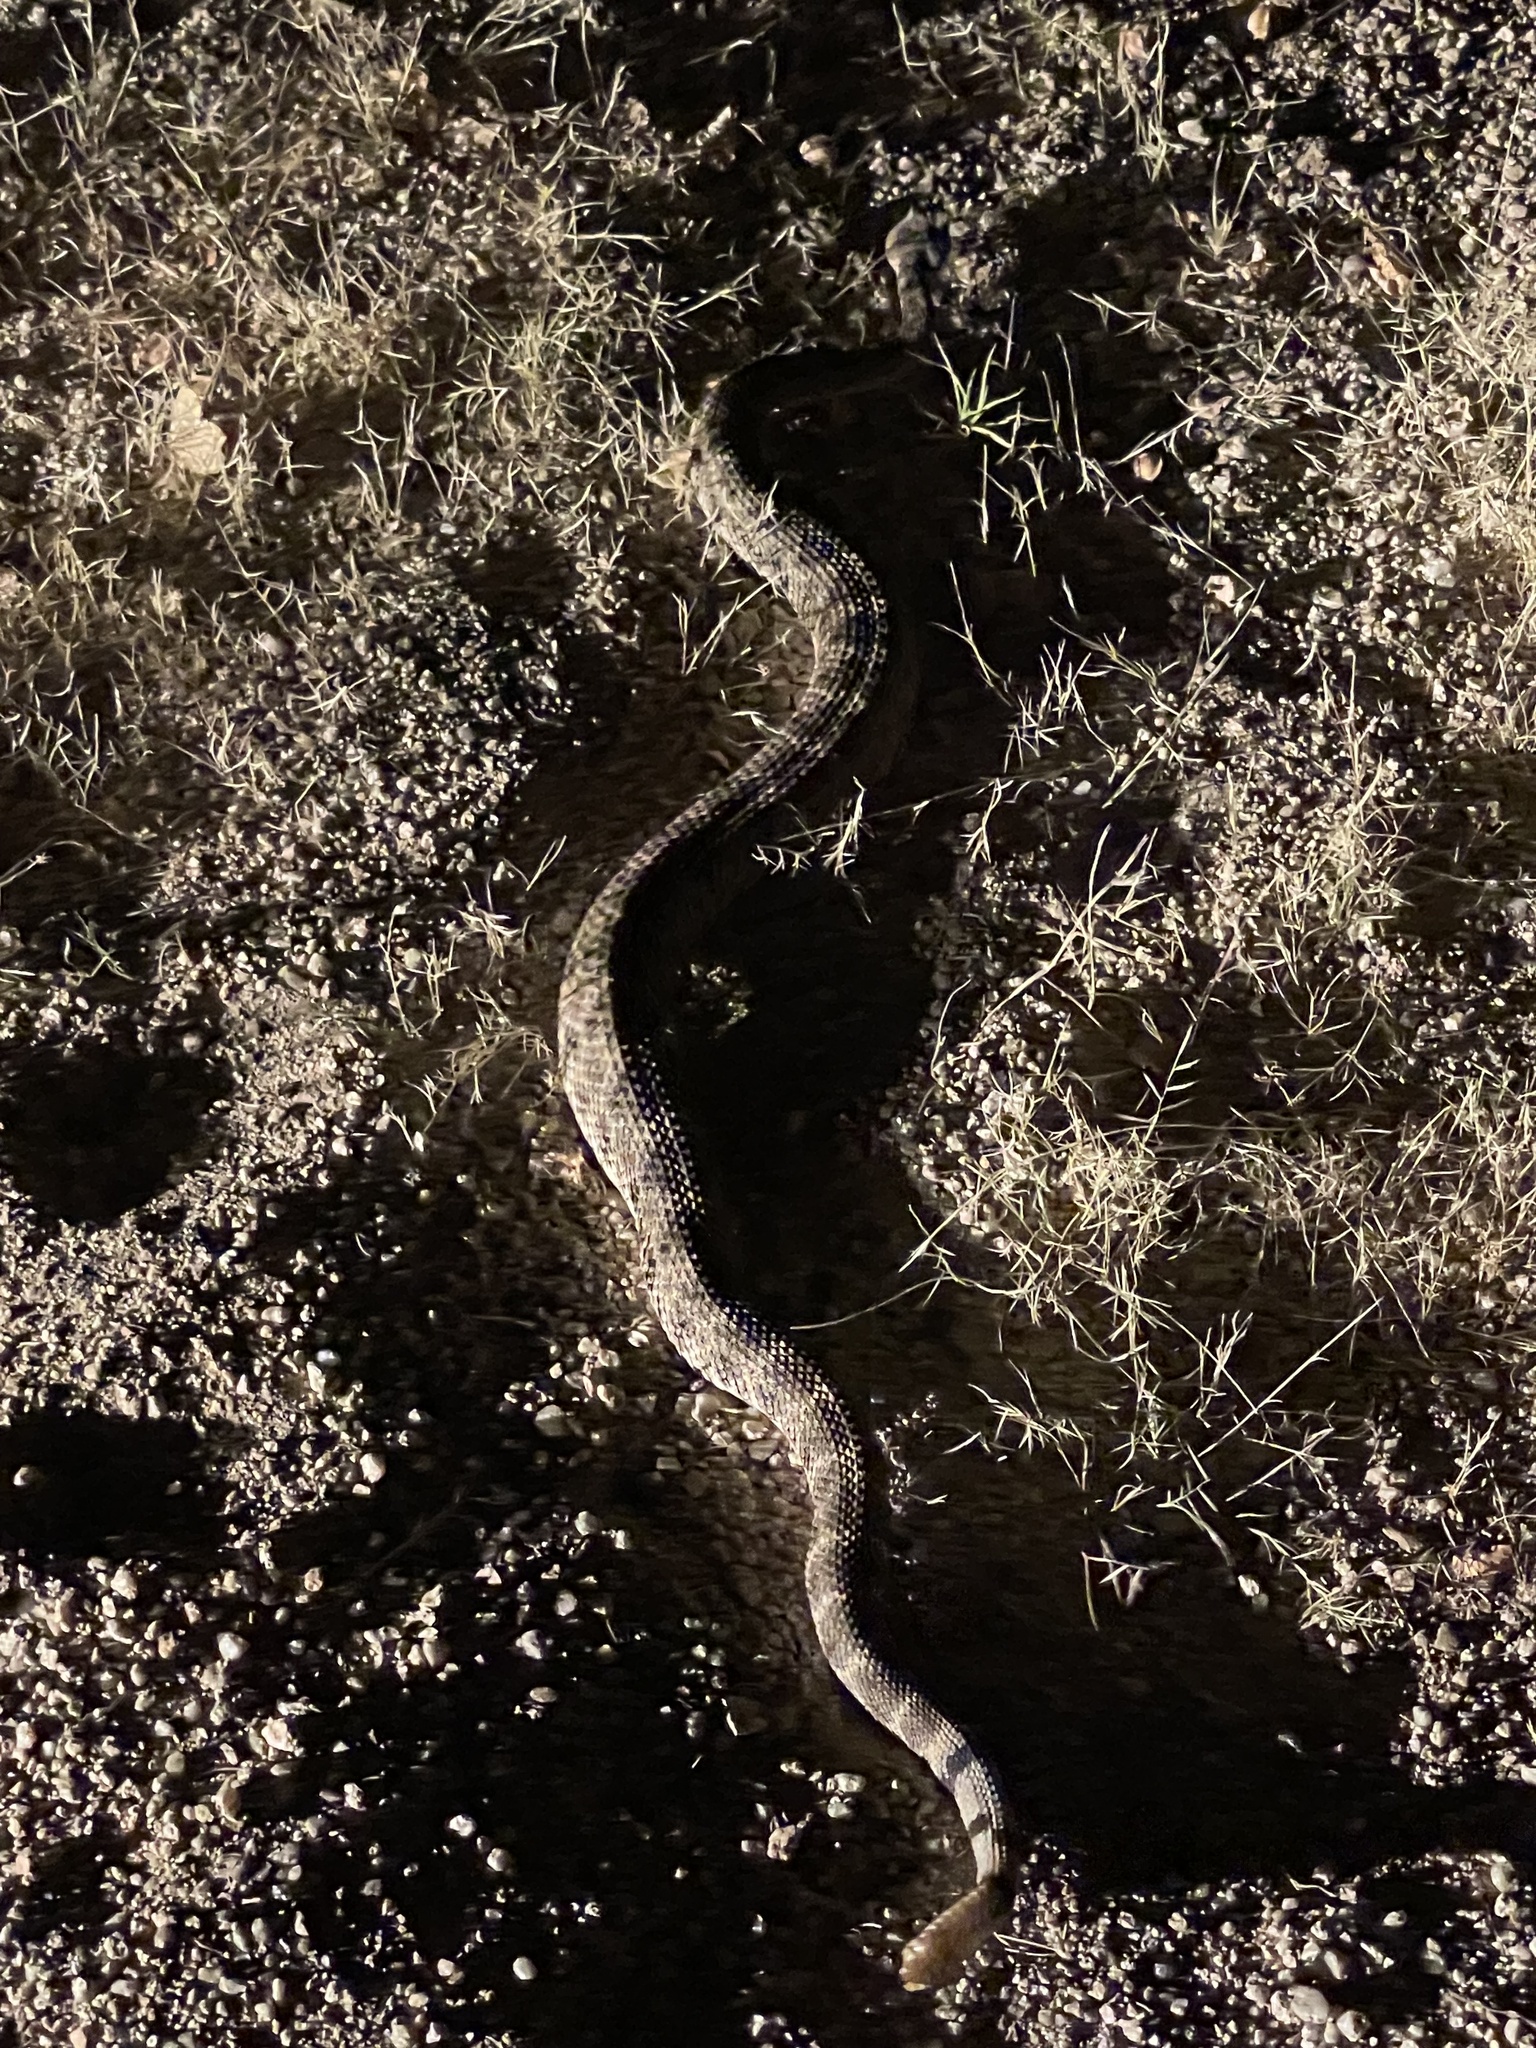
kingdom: Animalia
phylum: Chordata
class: Squamata
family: Viperidae
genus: Crotalus
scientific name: Crotalus mitchellii
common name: Speckled rattlesnake
